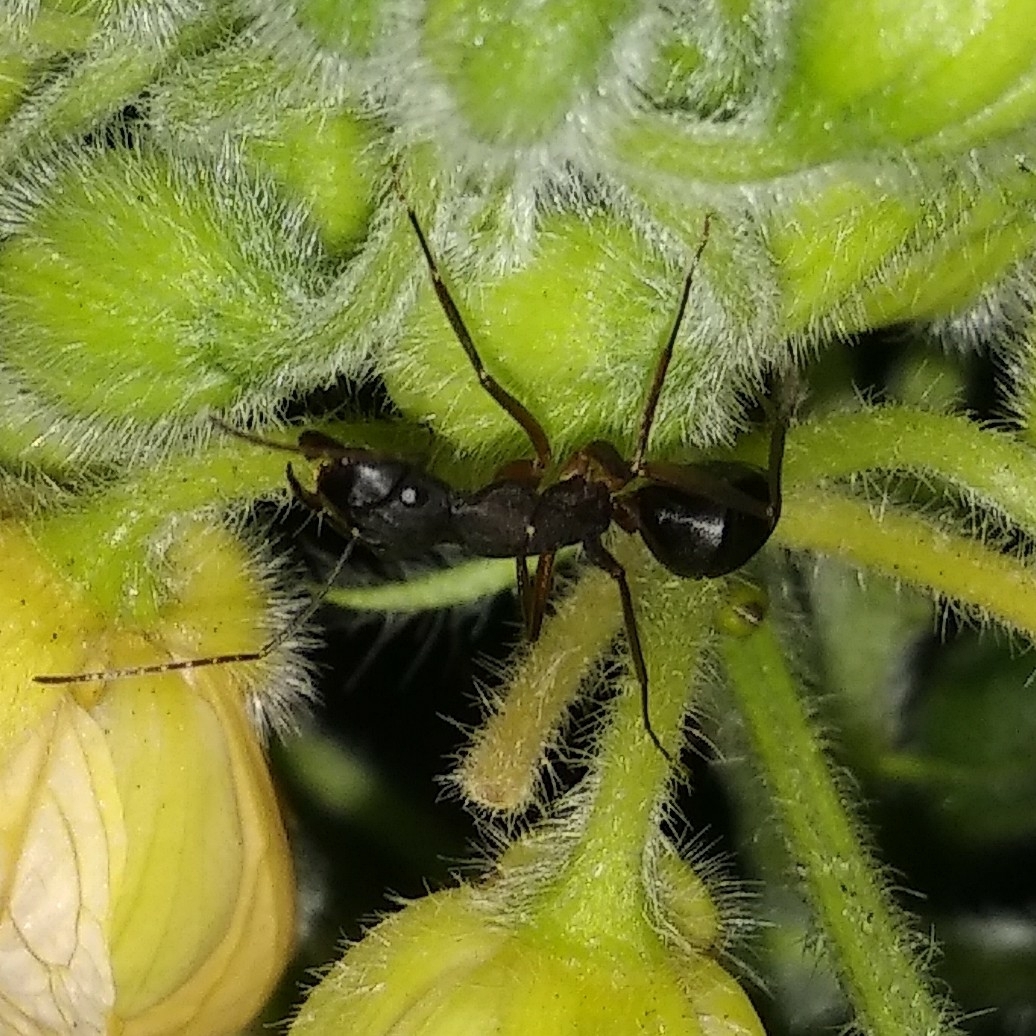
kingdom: Animalia
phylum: Arthropoda
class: Insecta
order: Hymenoptera
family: Formicidae
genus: Camponotus
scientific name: Camponotus compressus
